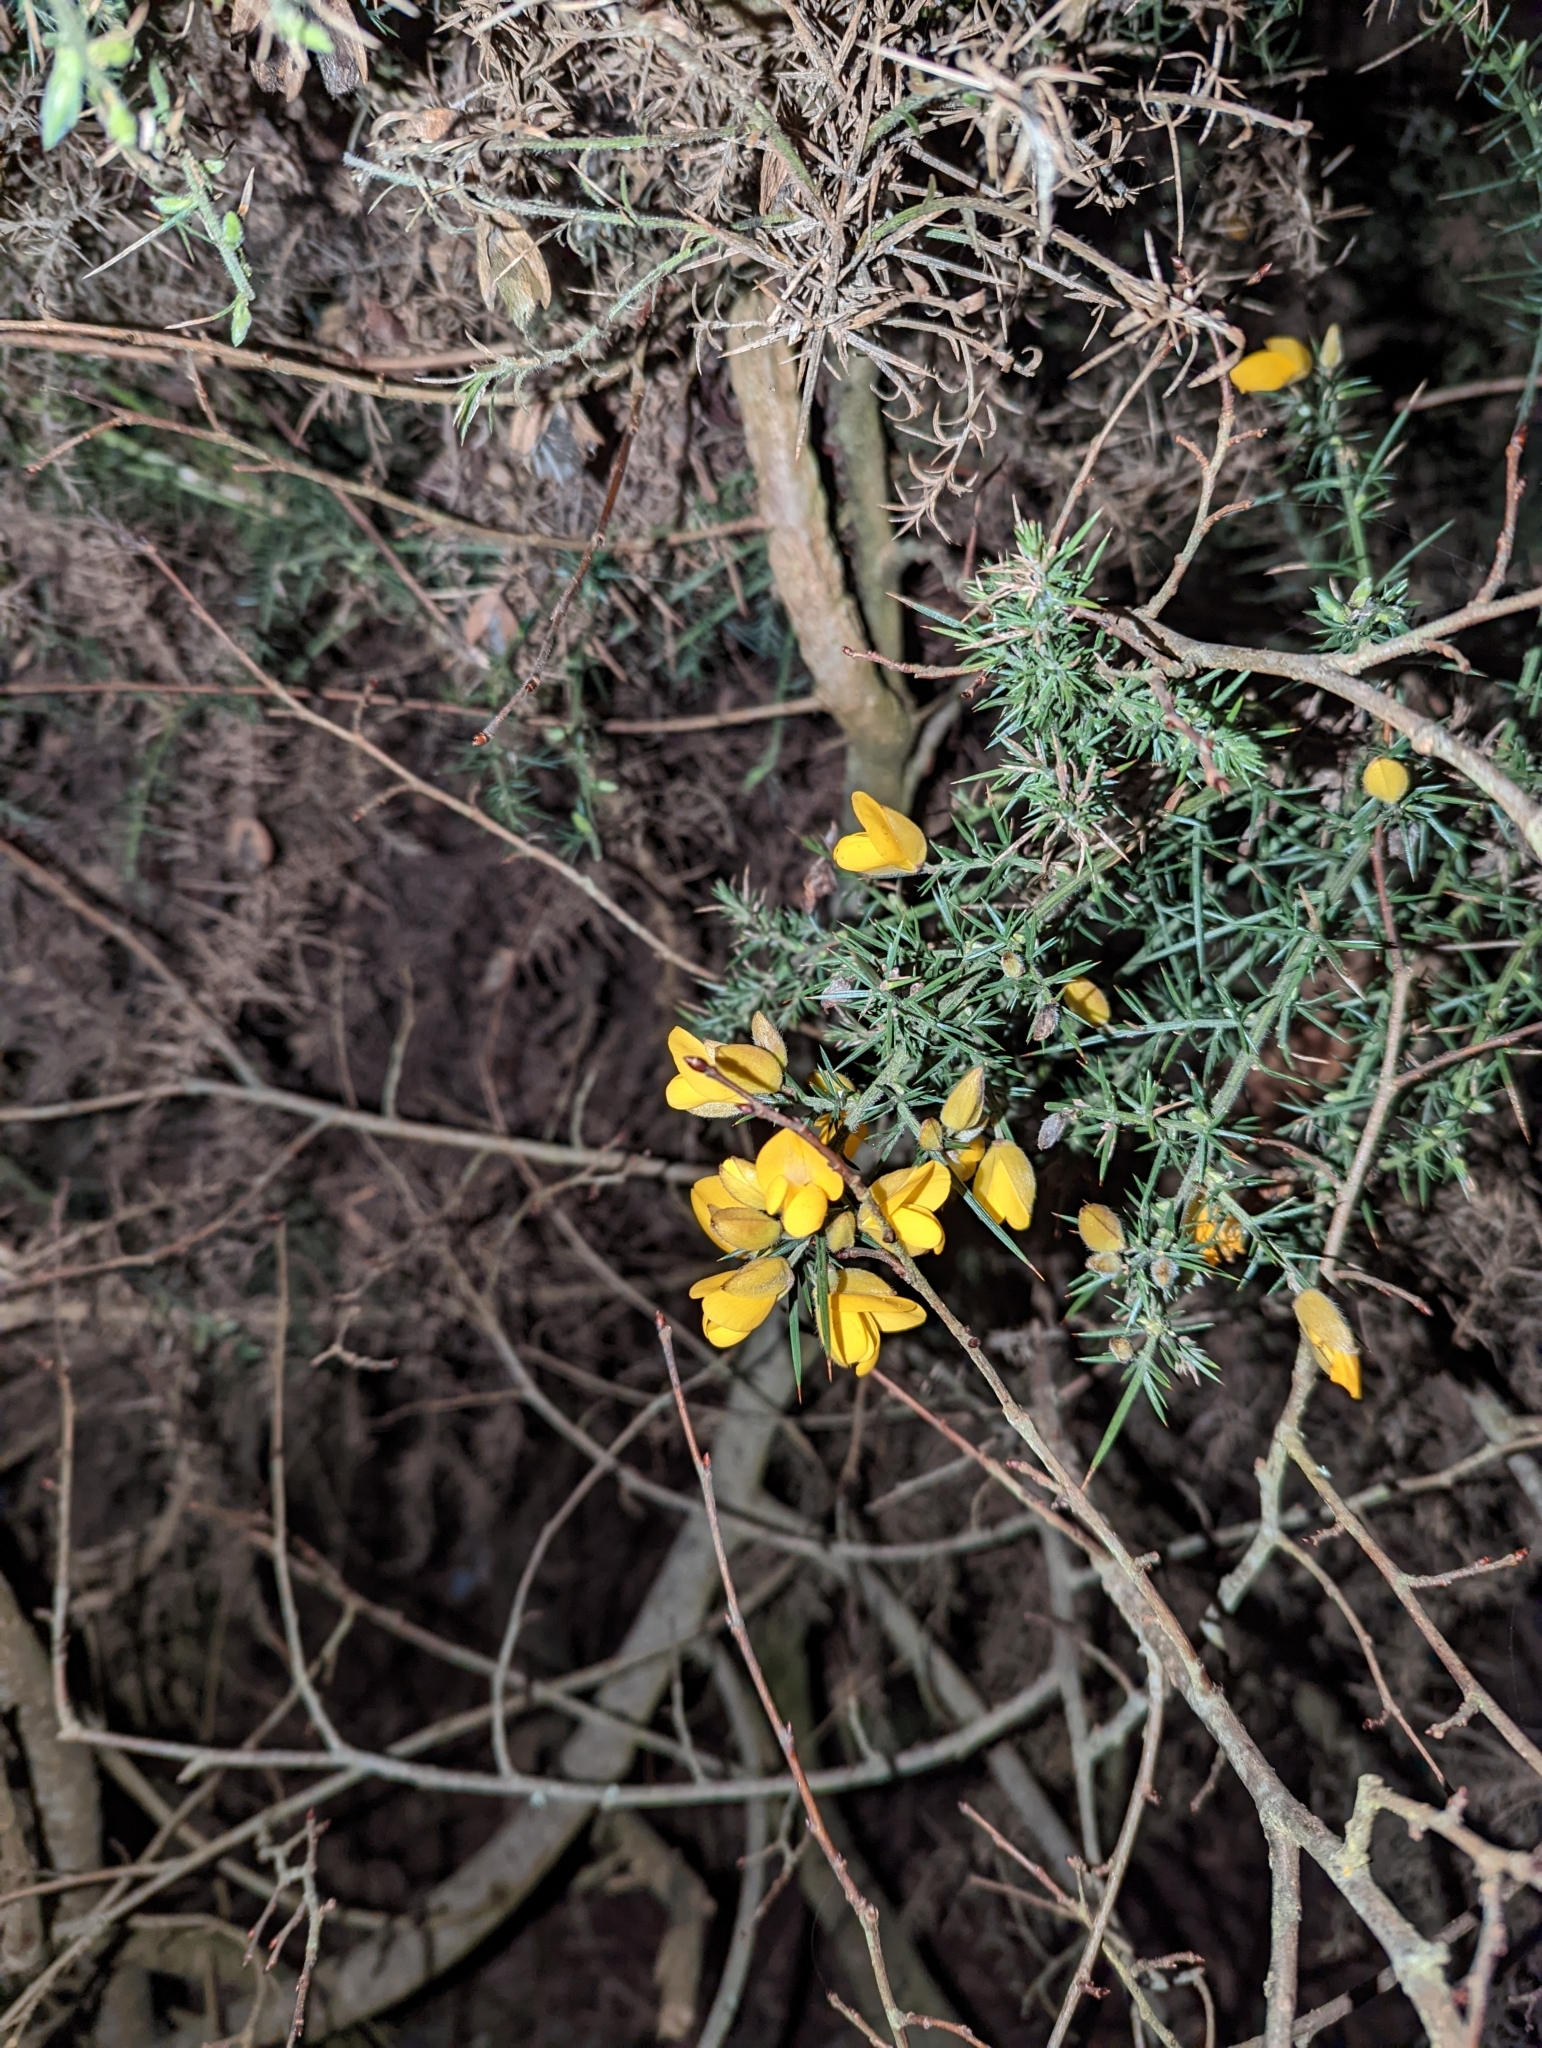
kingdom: Plantae
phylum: Tracheophyta
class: Magnoliopsida
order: Fabales
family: Fabaceae
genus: Ulex
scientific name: Ulex europaeus
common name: Common gorse
